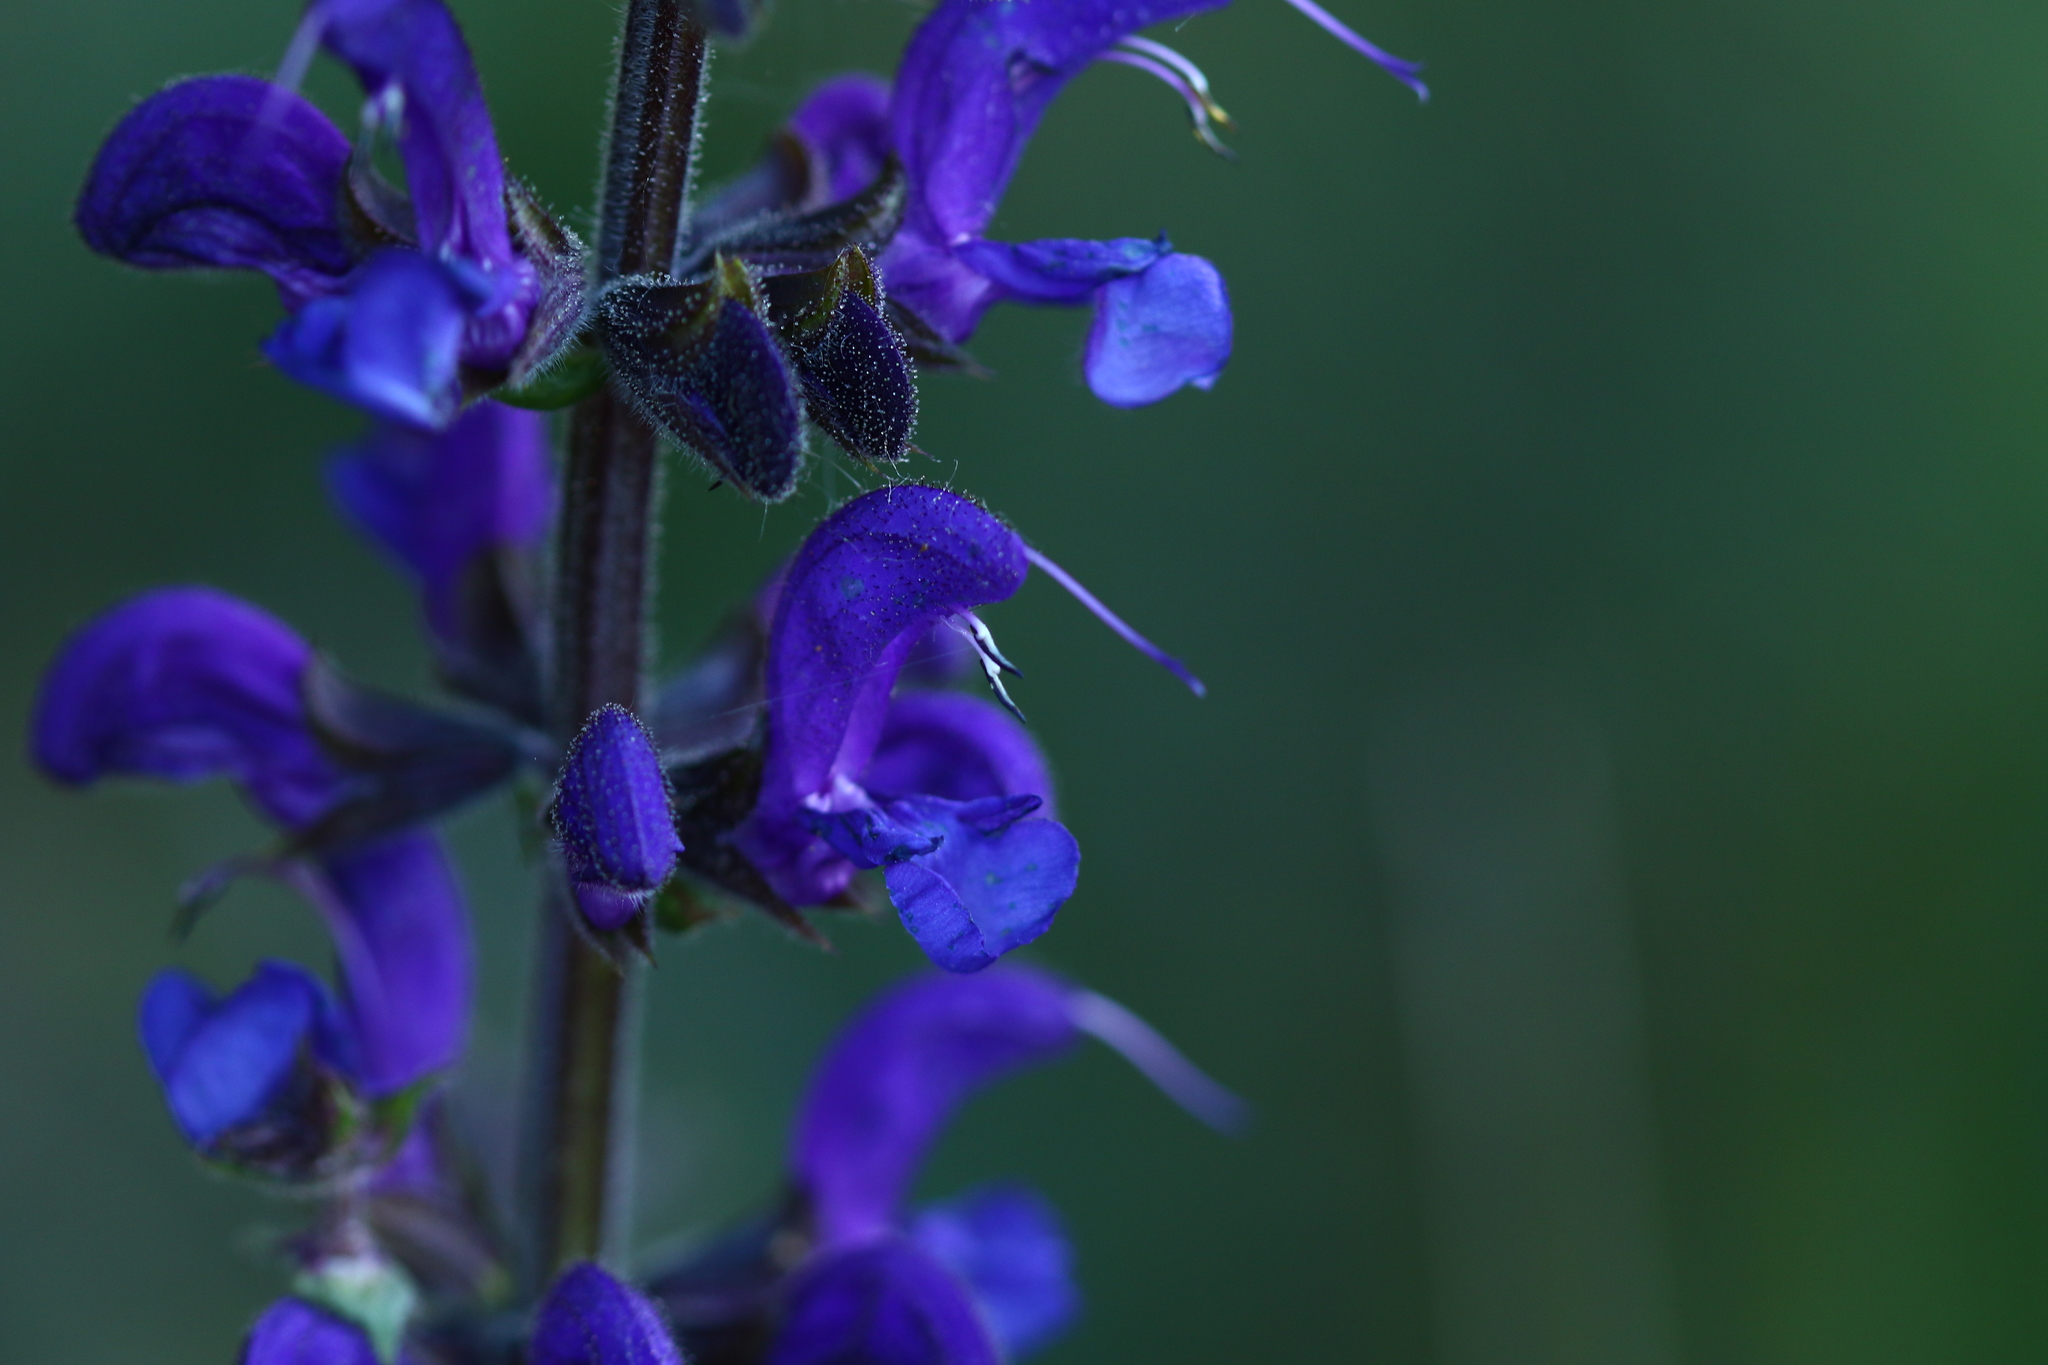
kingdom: Plantae
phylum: Tracheophyta
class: Magnoliopsida
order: Lamiales
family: Lamiaceae
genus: Salvia
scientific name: Salvia pratensis
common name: Meadow sage
